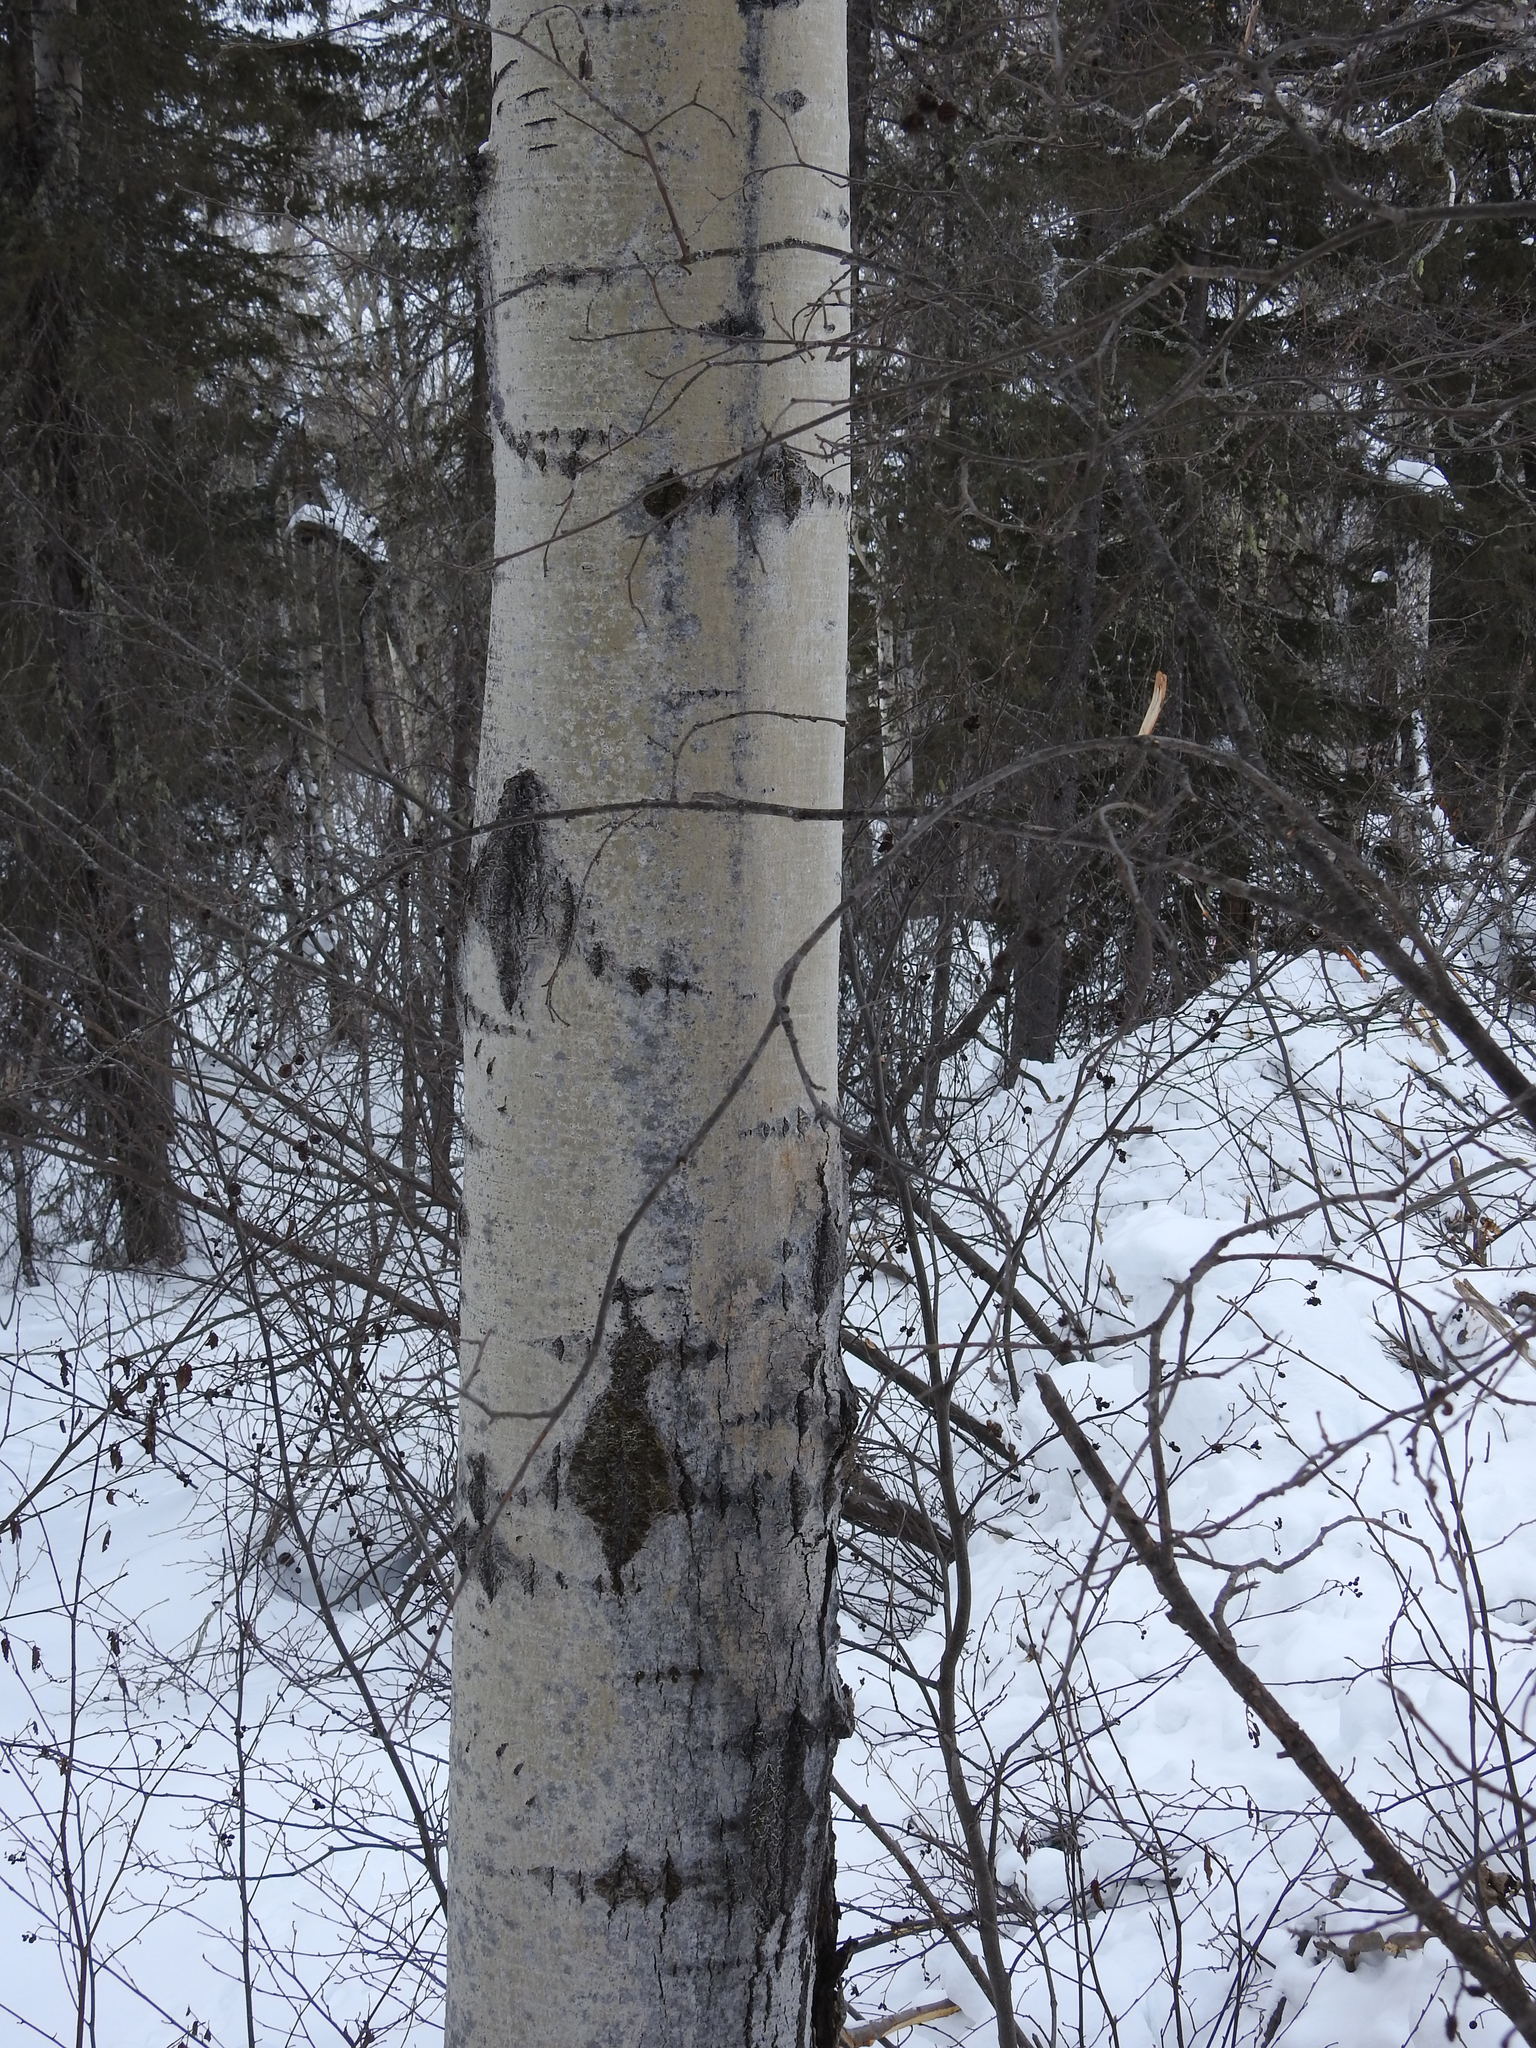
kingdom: Plantae
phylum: Tracheophyta
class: Magnoliopsida
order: Malpighiales
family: Salicaceae
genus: Populus
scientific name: Populus tremuloides
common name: Quaking aspen
